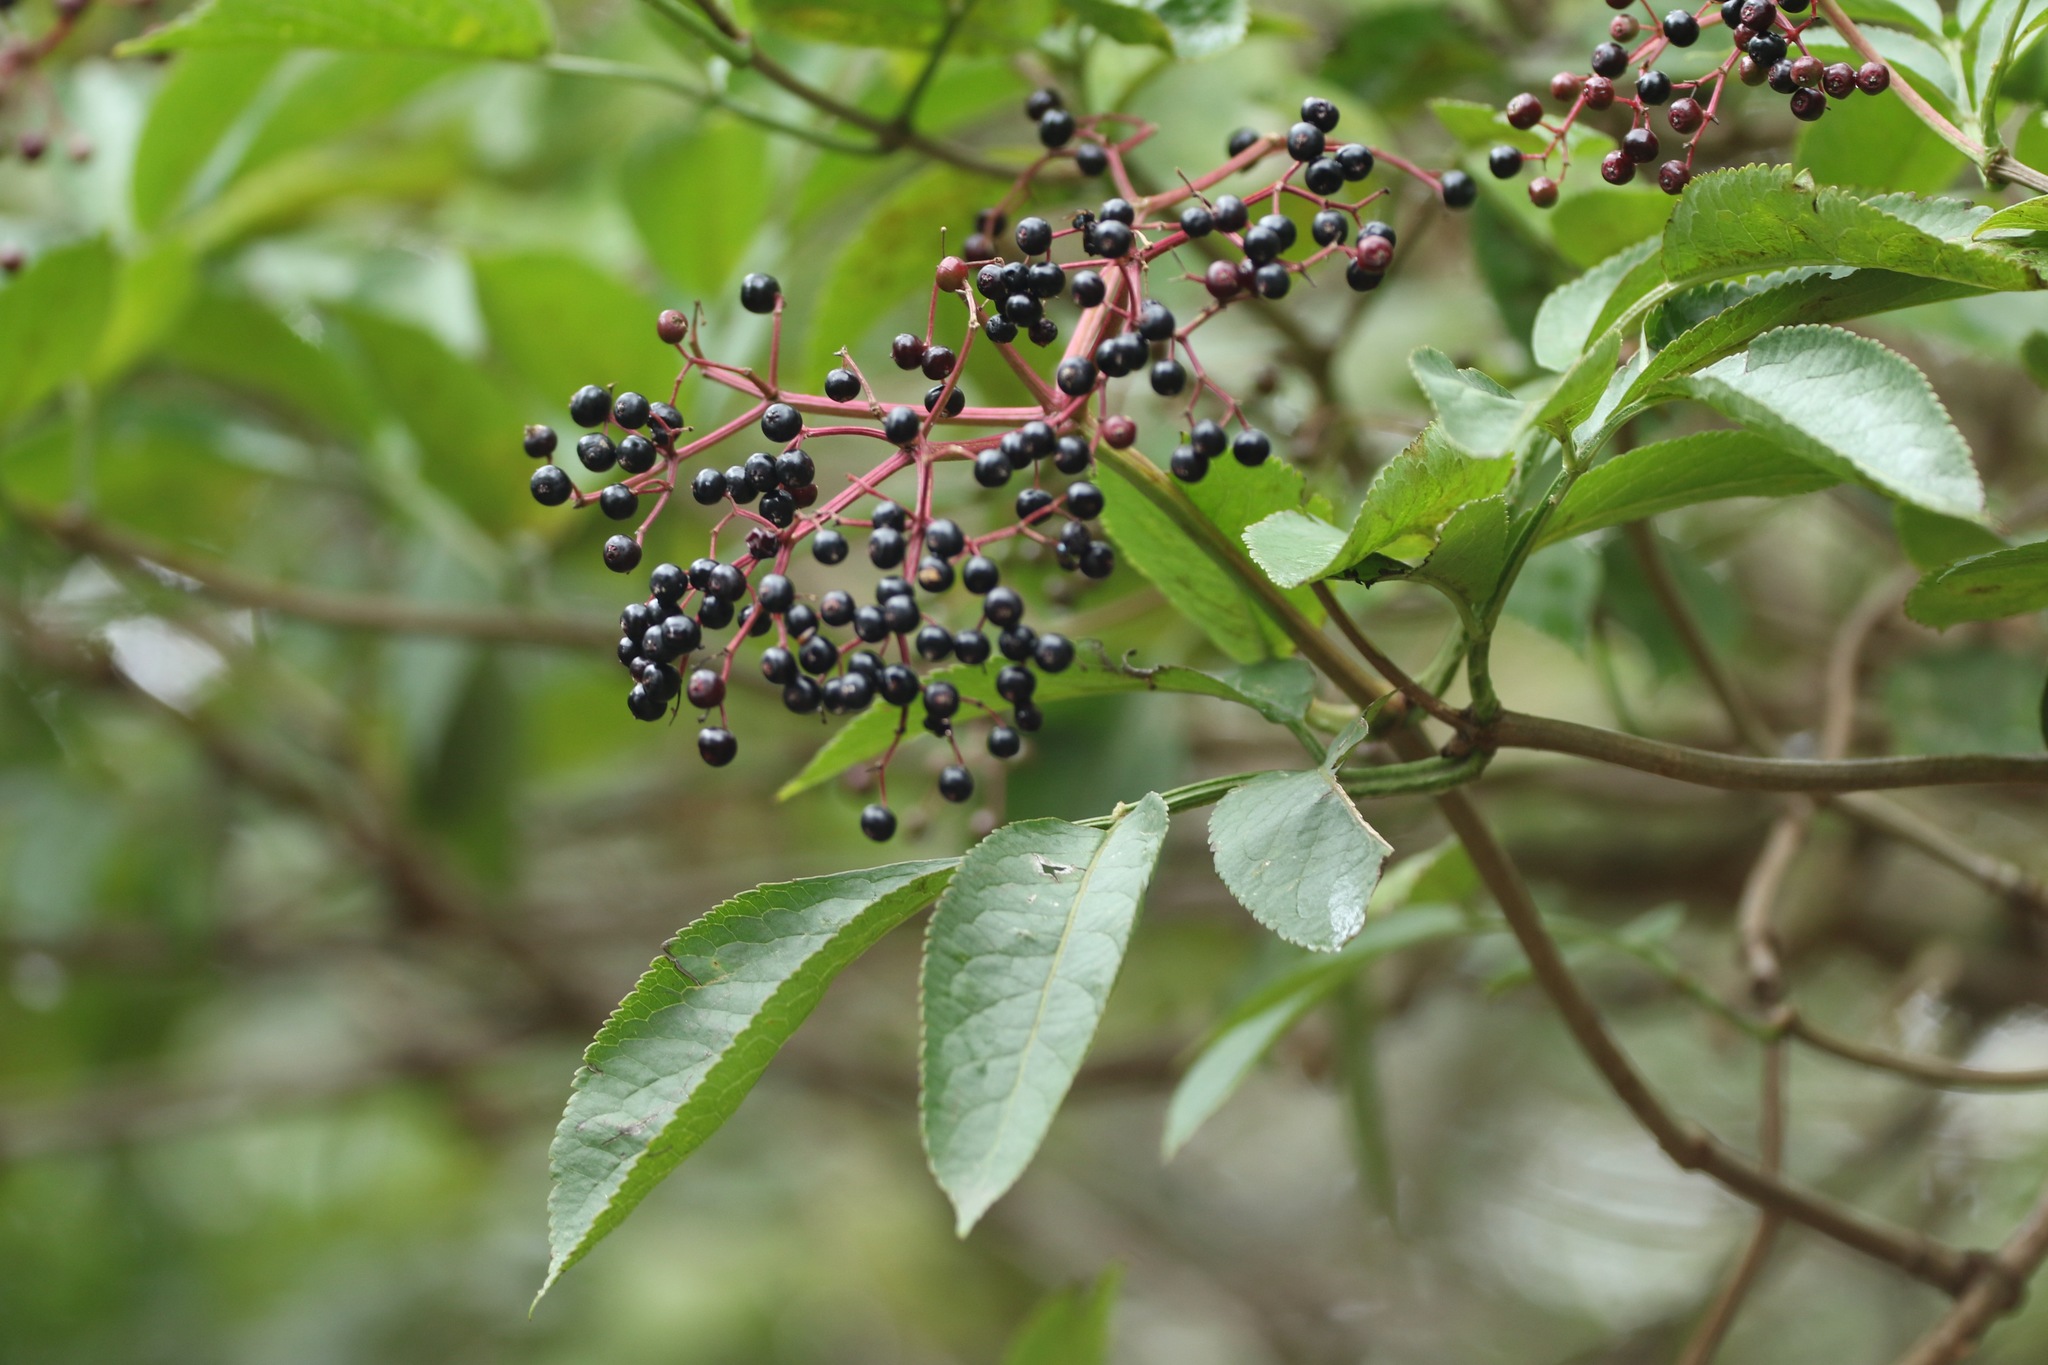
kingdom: Plantae
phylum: Tracheophyta
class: Magnoliopsida
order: Dipsacales
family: Viburnaceae
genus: Sambucus
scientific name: Sambucus nigra
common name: Elder
